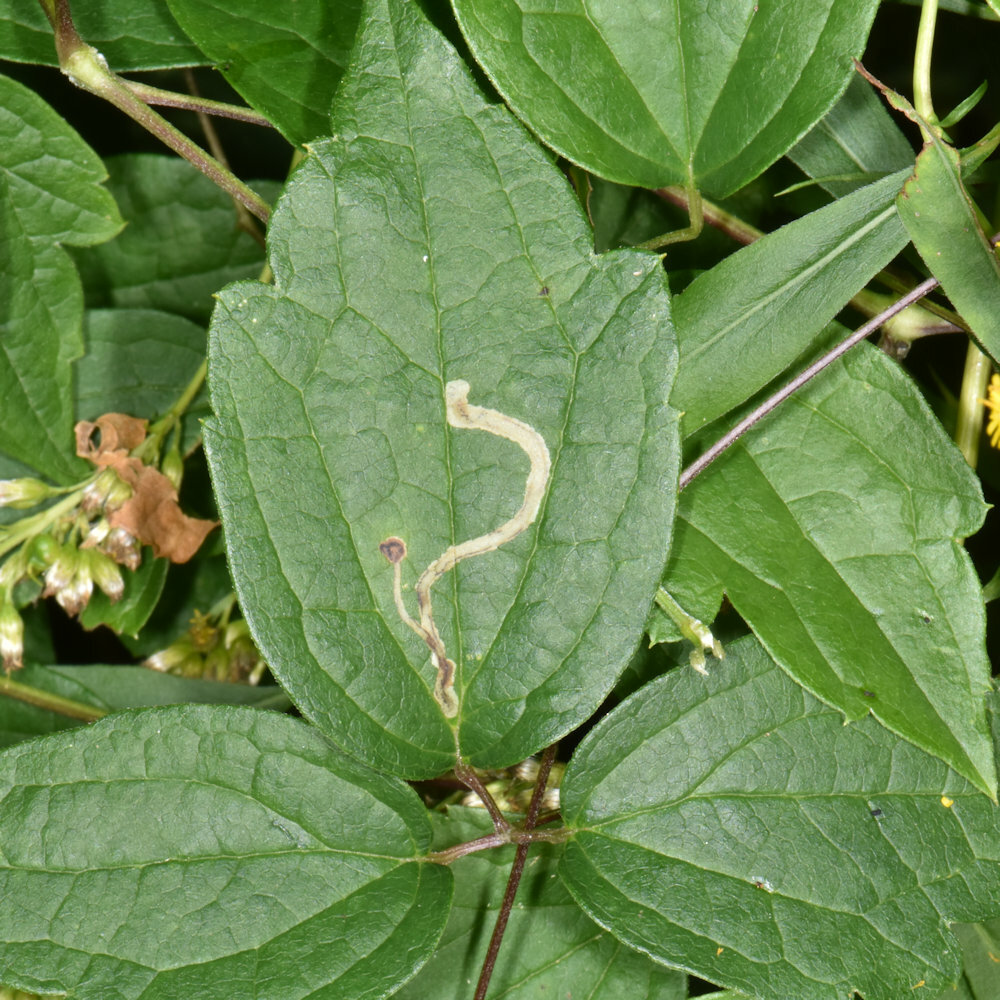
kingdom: Animalia
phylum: Arthropoda
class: Insecta
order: Diptera
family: Agromyzidae
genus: Phytomyza
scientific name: Phytomyza loewii
